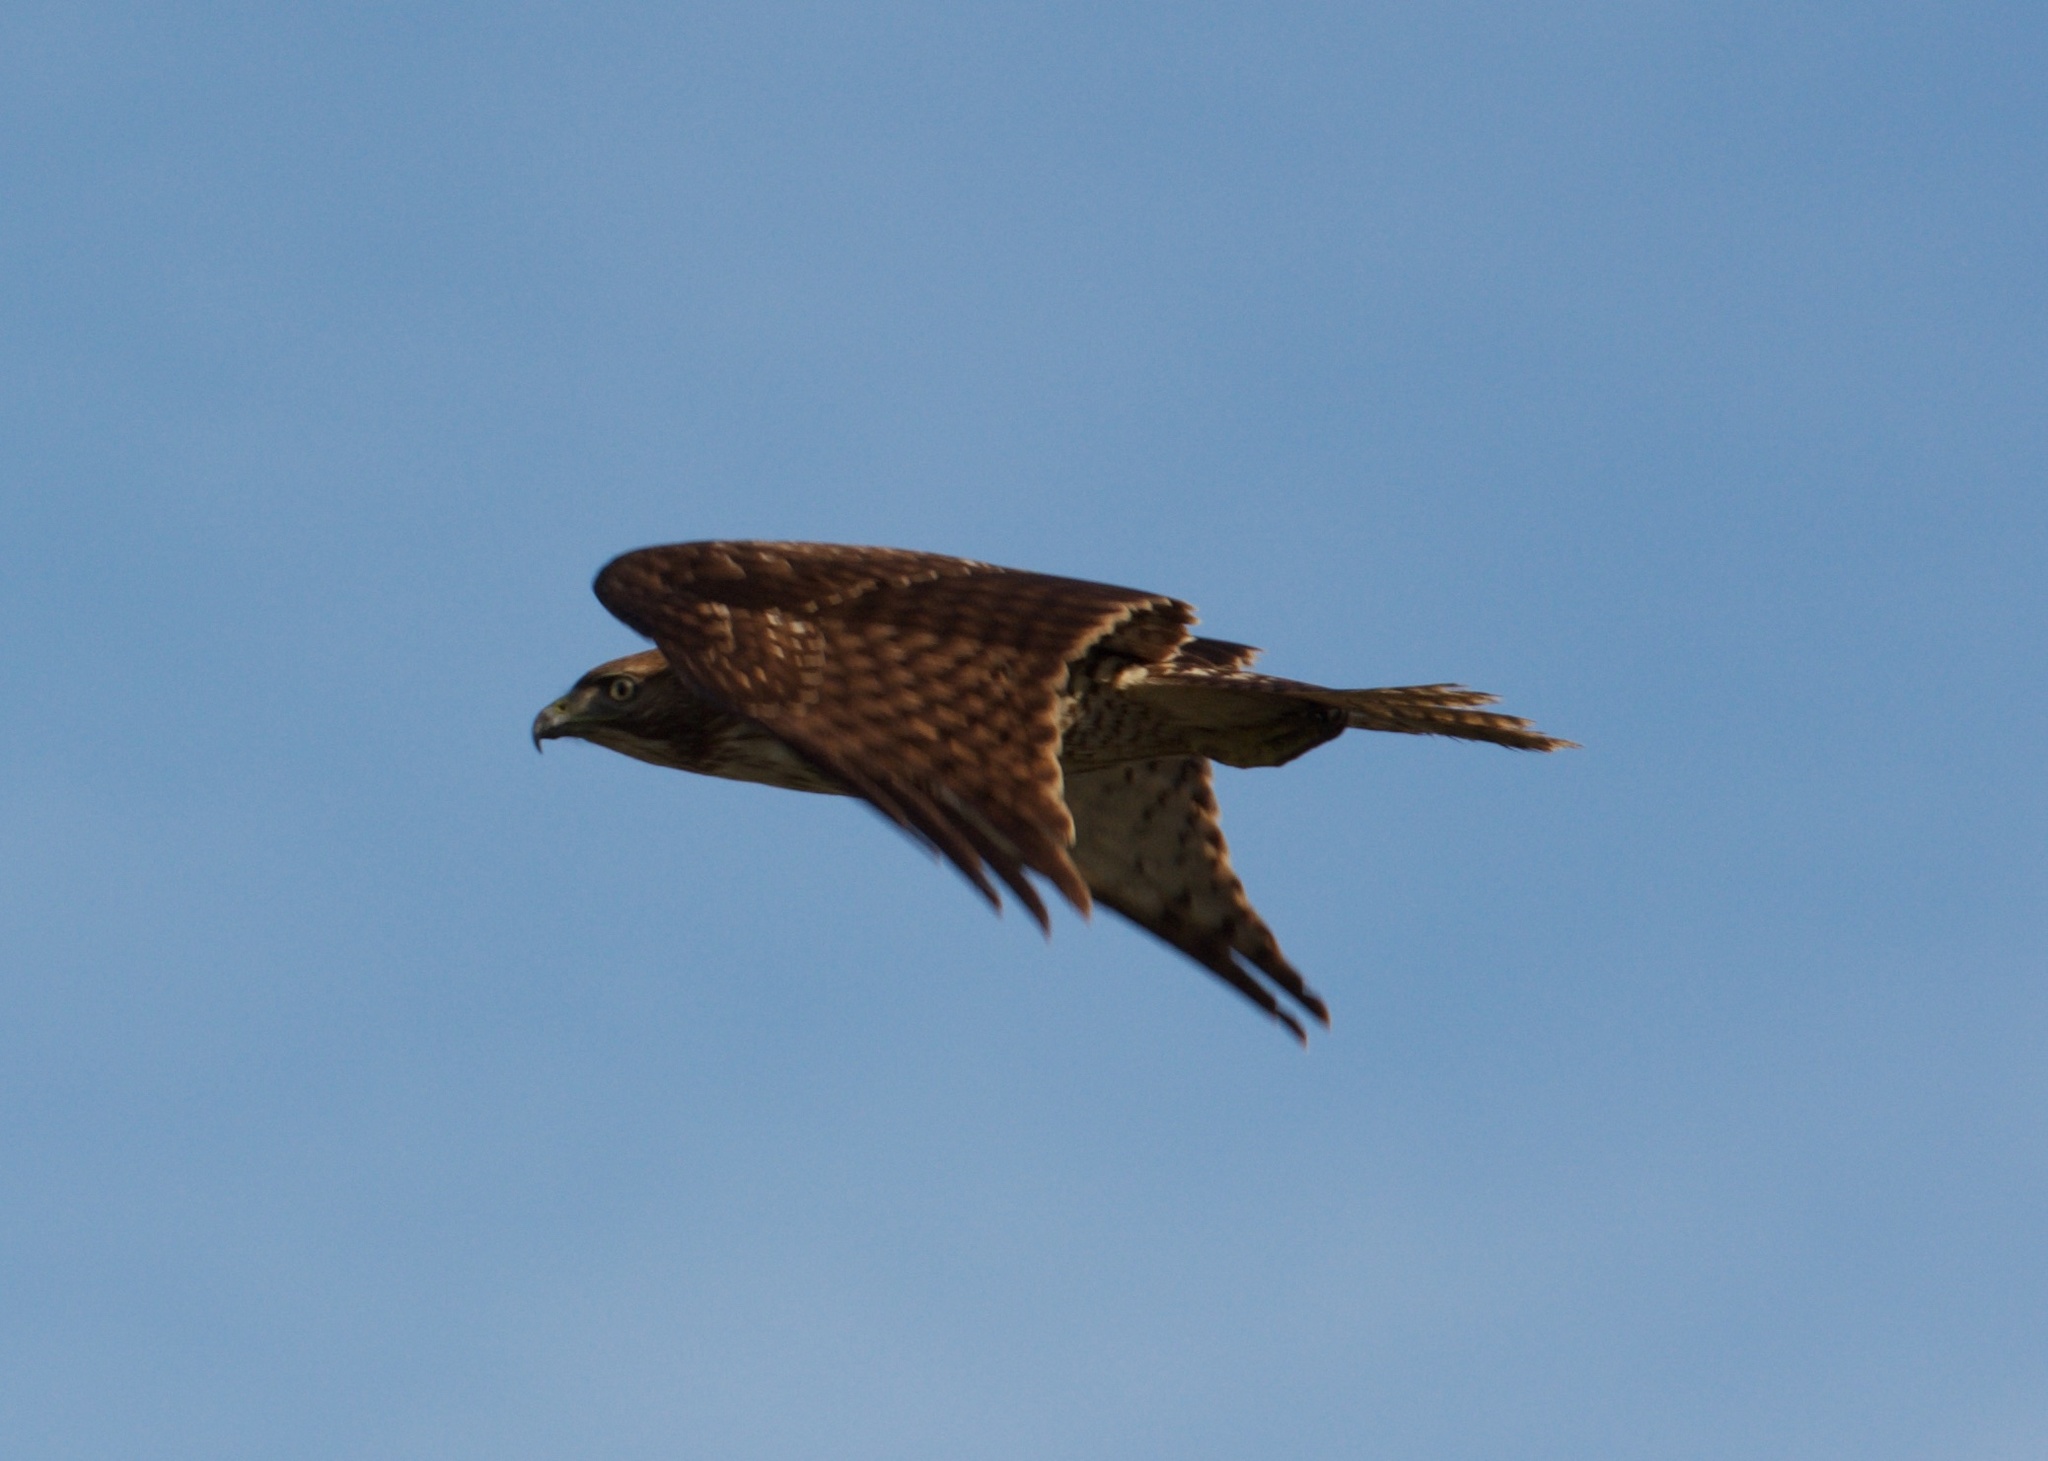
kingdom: Animalia
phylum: Chordata
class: Aves
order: Accipitriformes
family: Accipitridae
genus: Buteo
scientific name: Buteo jamaicensis
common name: Red-tailed hawk
